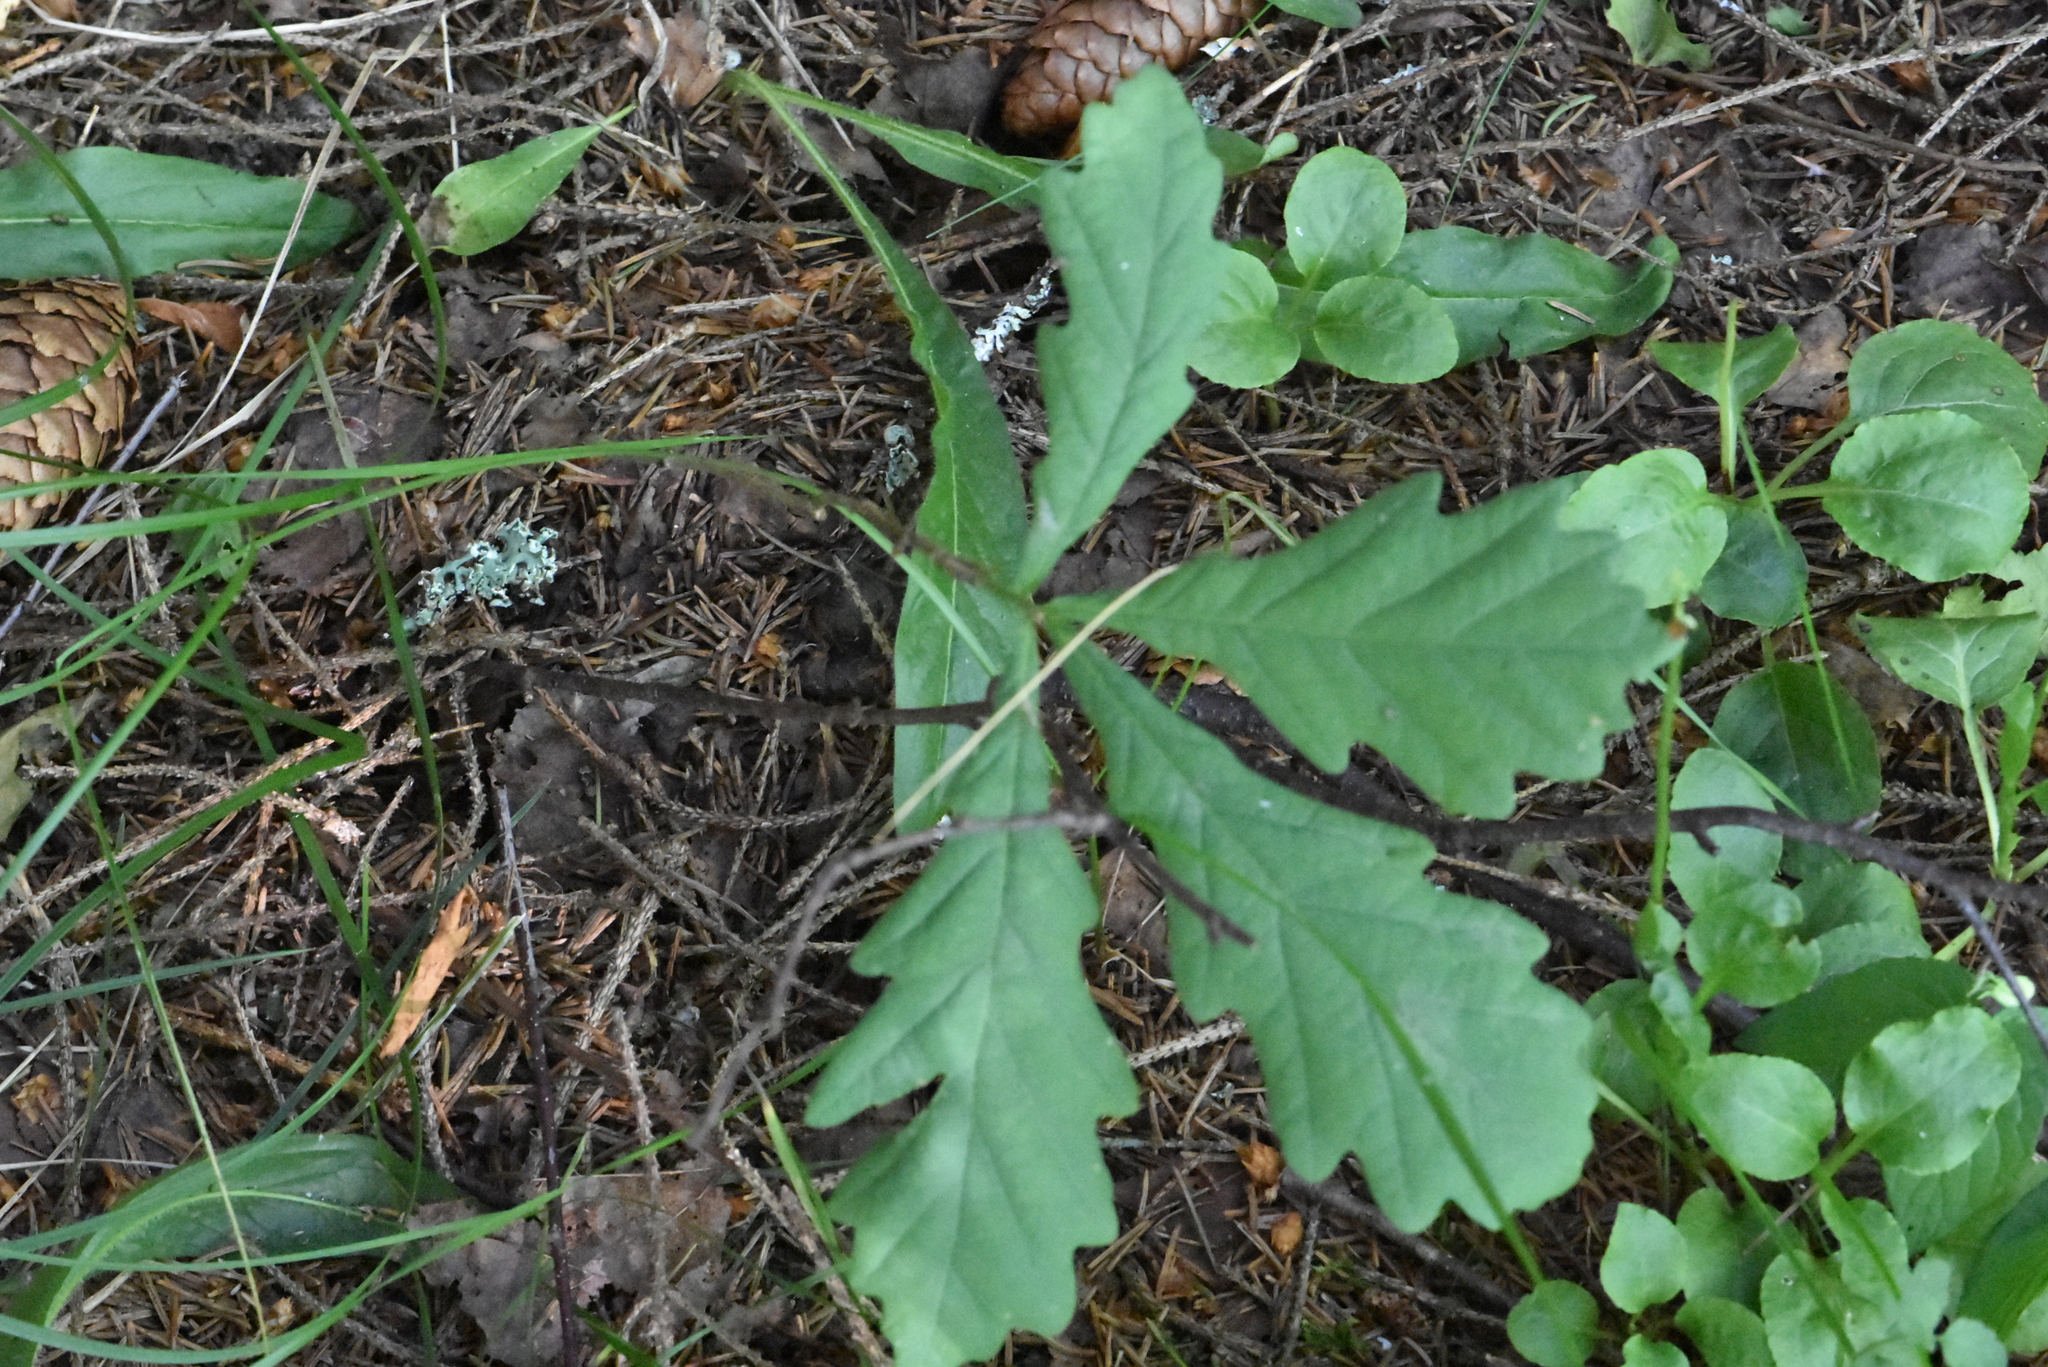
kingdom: Plantae
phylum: Tracheophyta
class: Magnoliopsida
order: Fagales
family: Fagaceae
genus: Quercus
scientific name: Quercus robur
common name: Pedunculate oak
